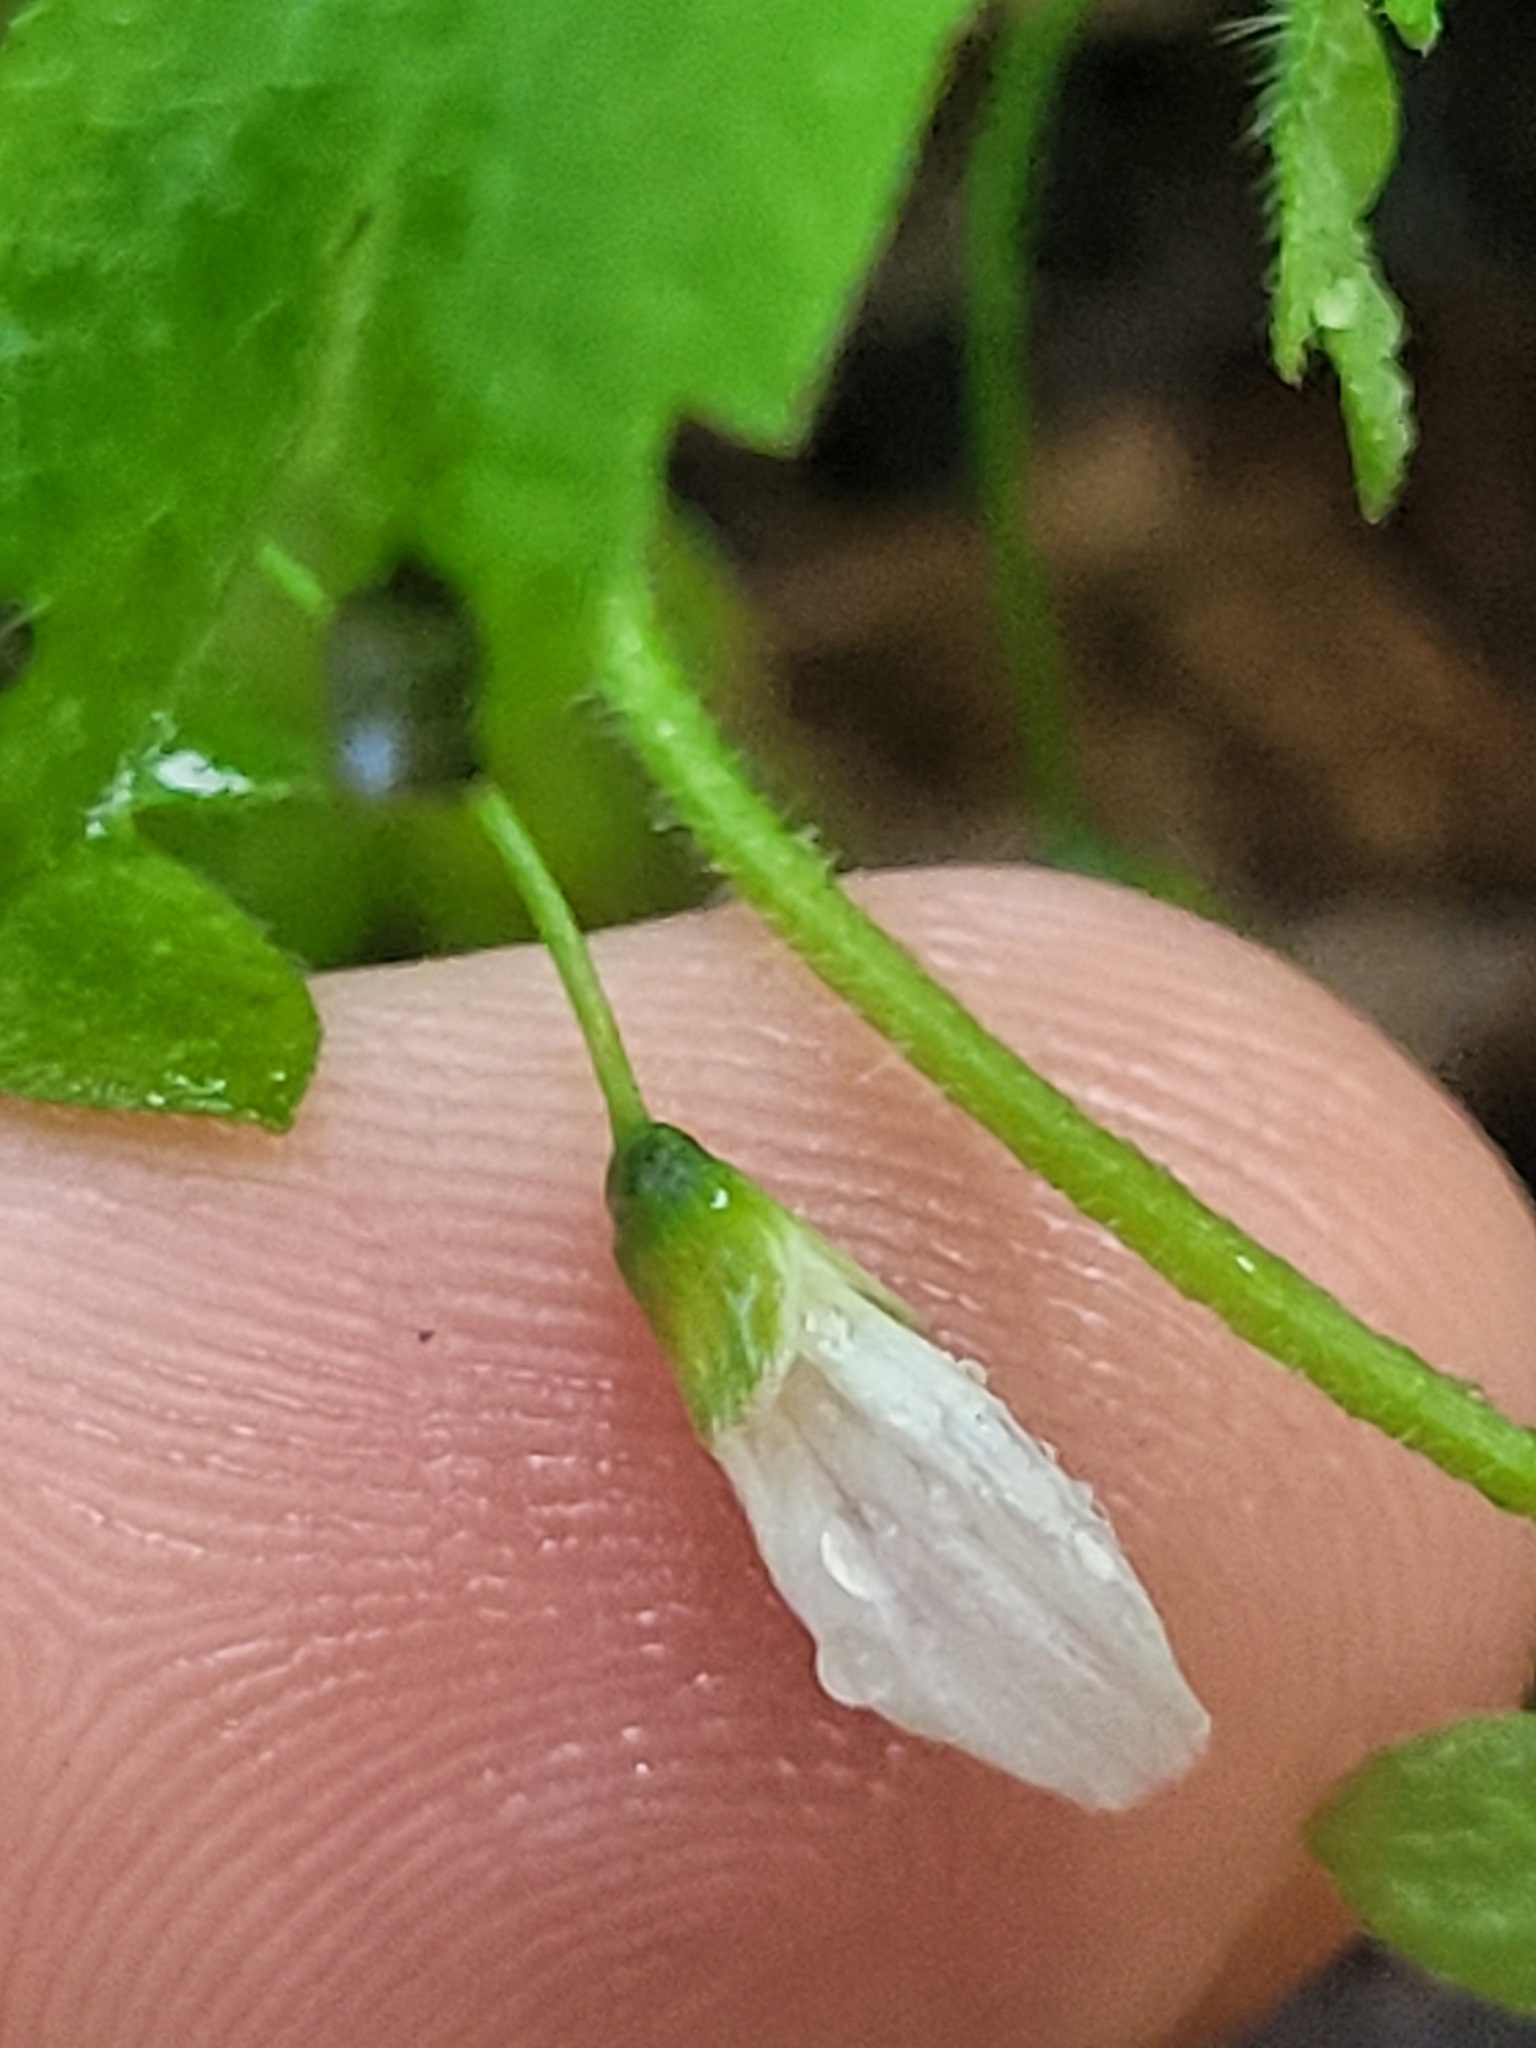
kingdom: Plantae
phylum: Tracheophyta
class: Magnoliopsida
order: Boraginales
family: Hydrophyllaceae
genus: Phacelia
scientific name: Phacelia covillei
